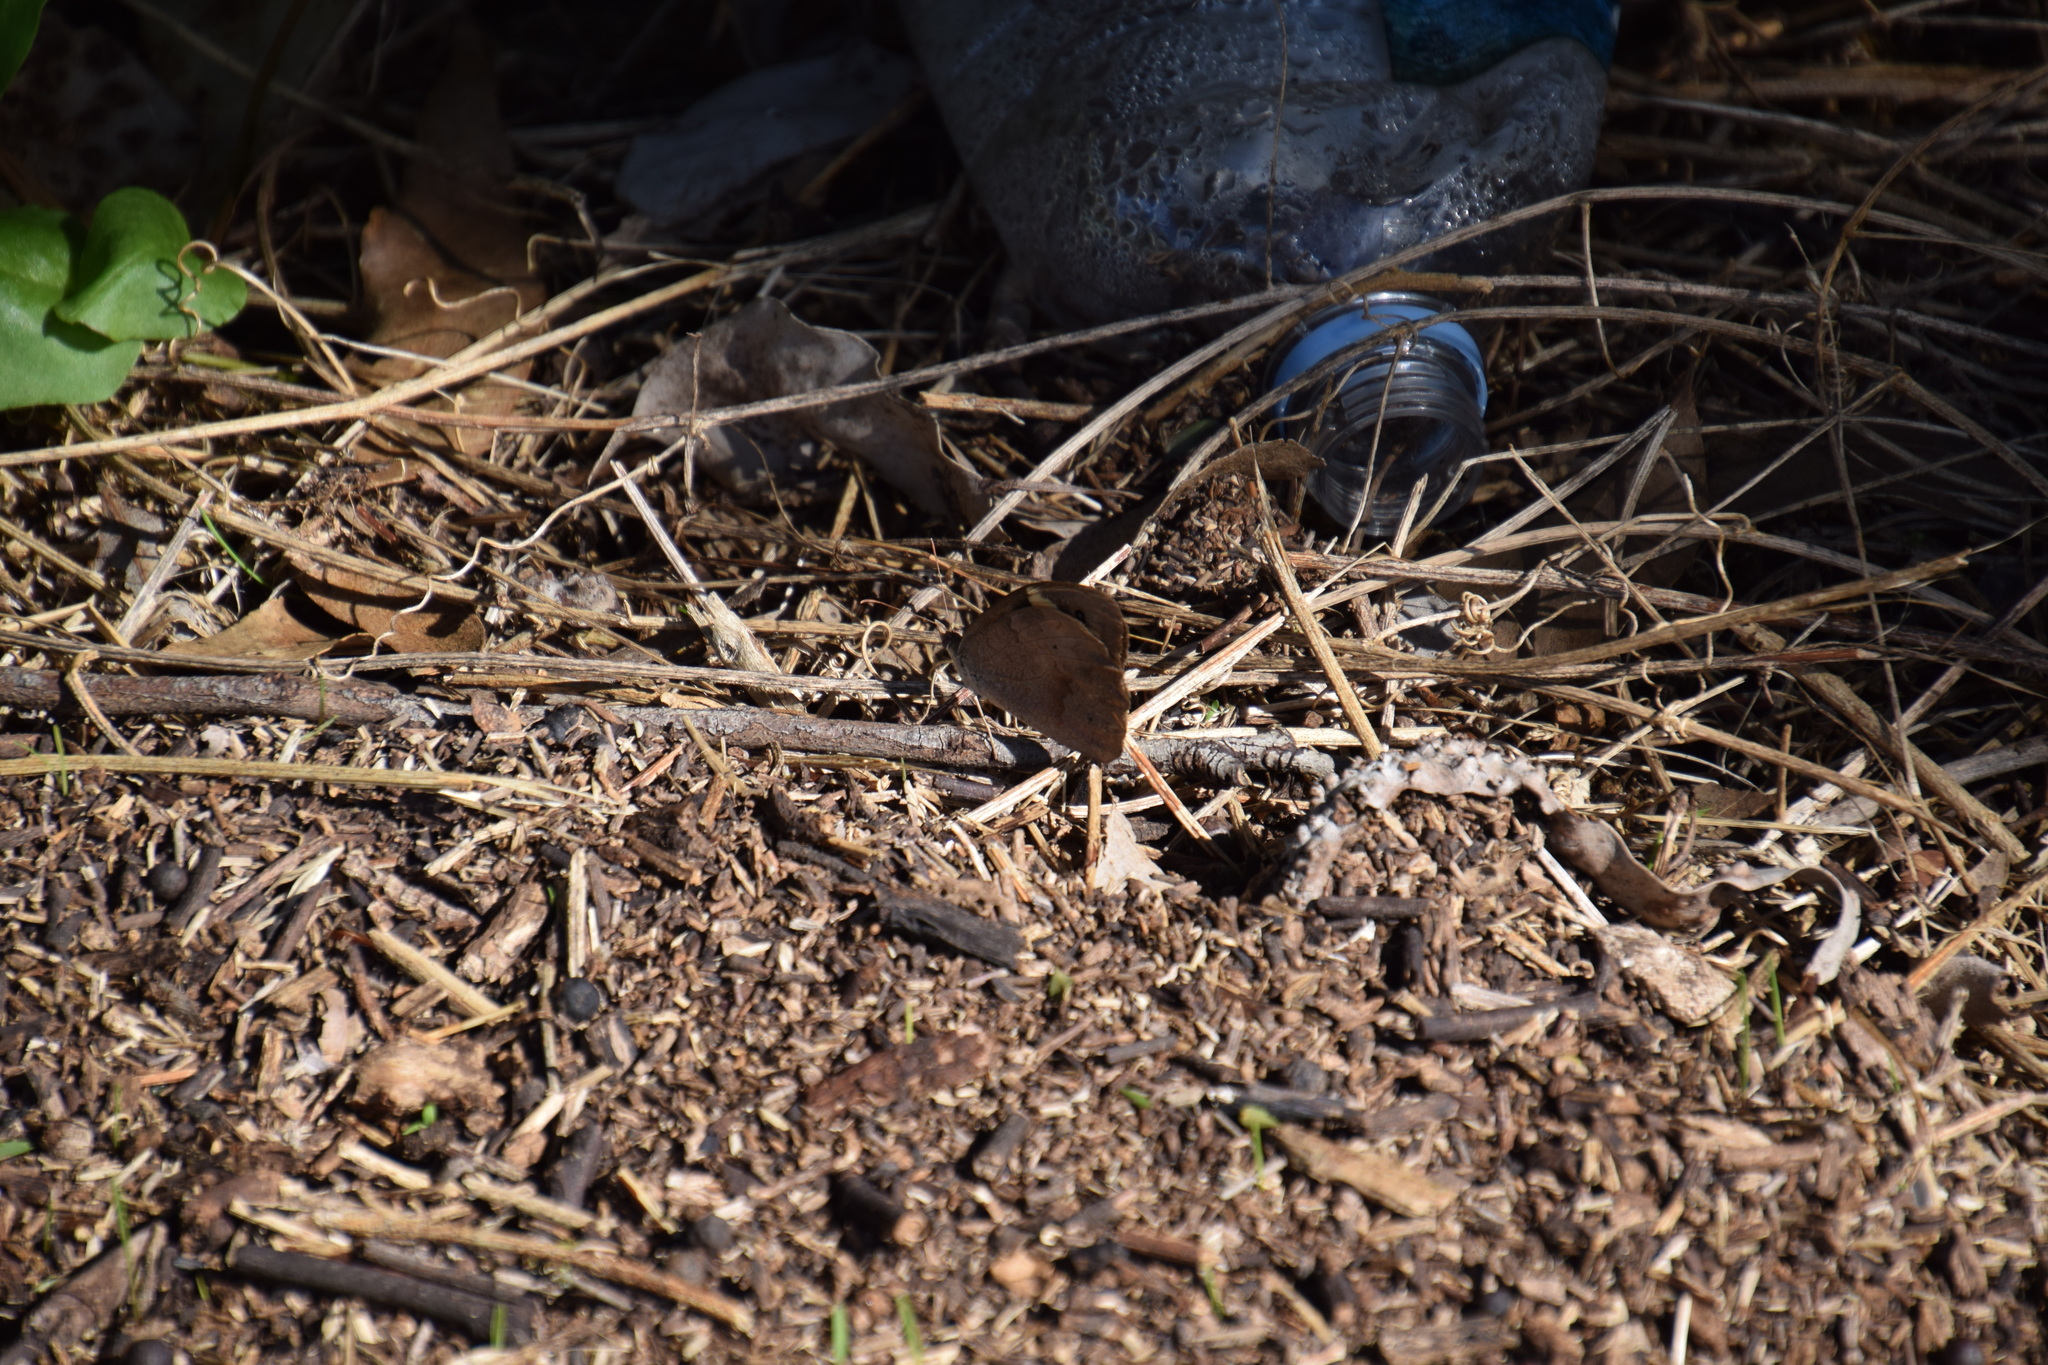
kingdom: Animalia
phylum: Arthropoda
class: Insecta
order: Lepidoptera
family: Nymphalidae
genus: Heteronympha
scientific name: Heteronympha merope
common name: Common brown
